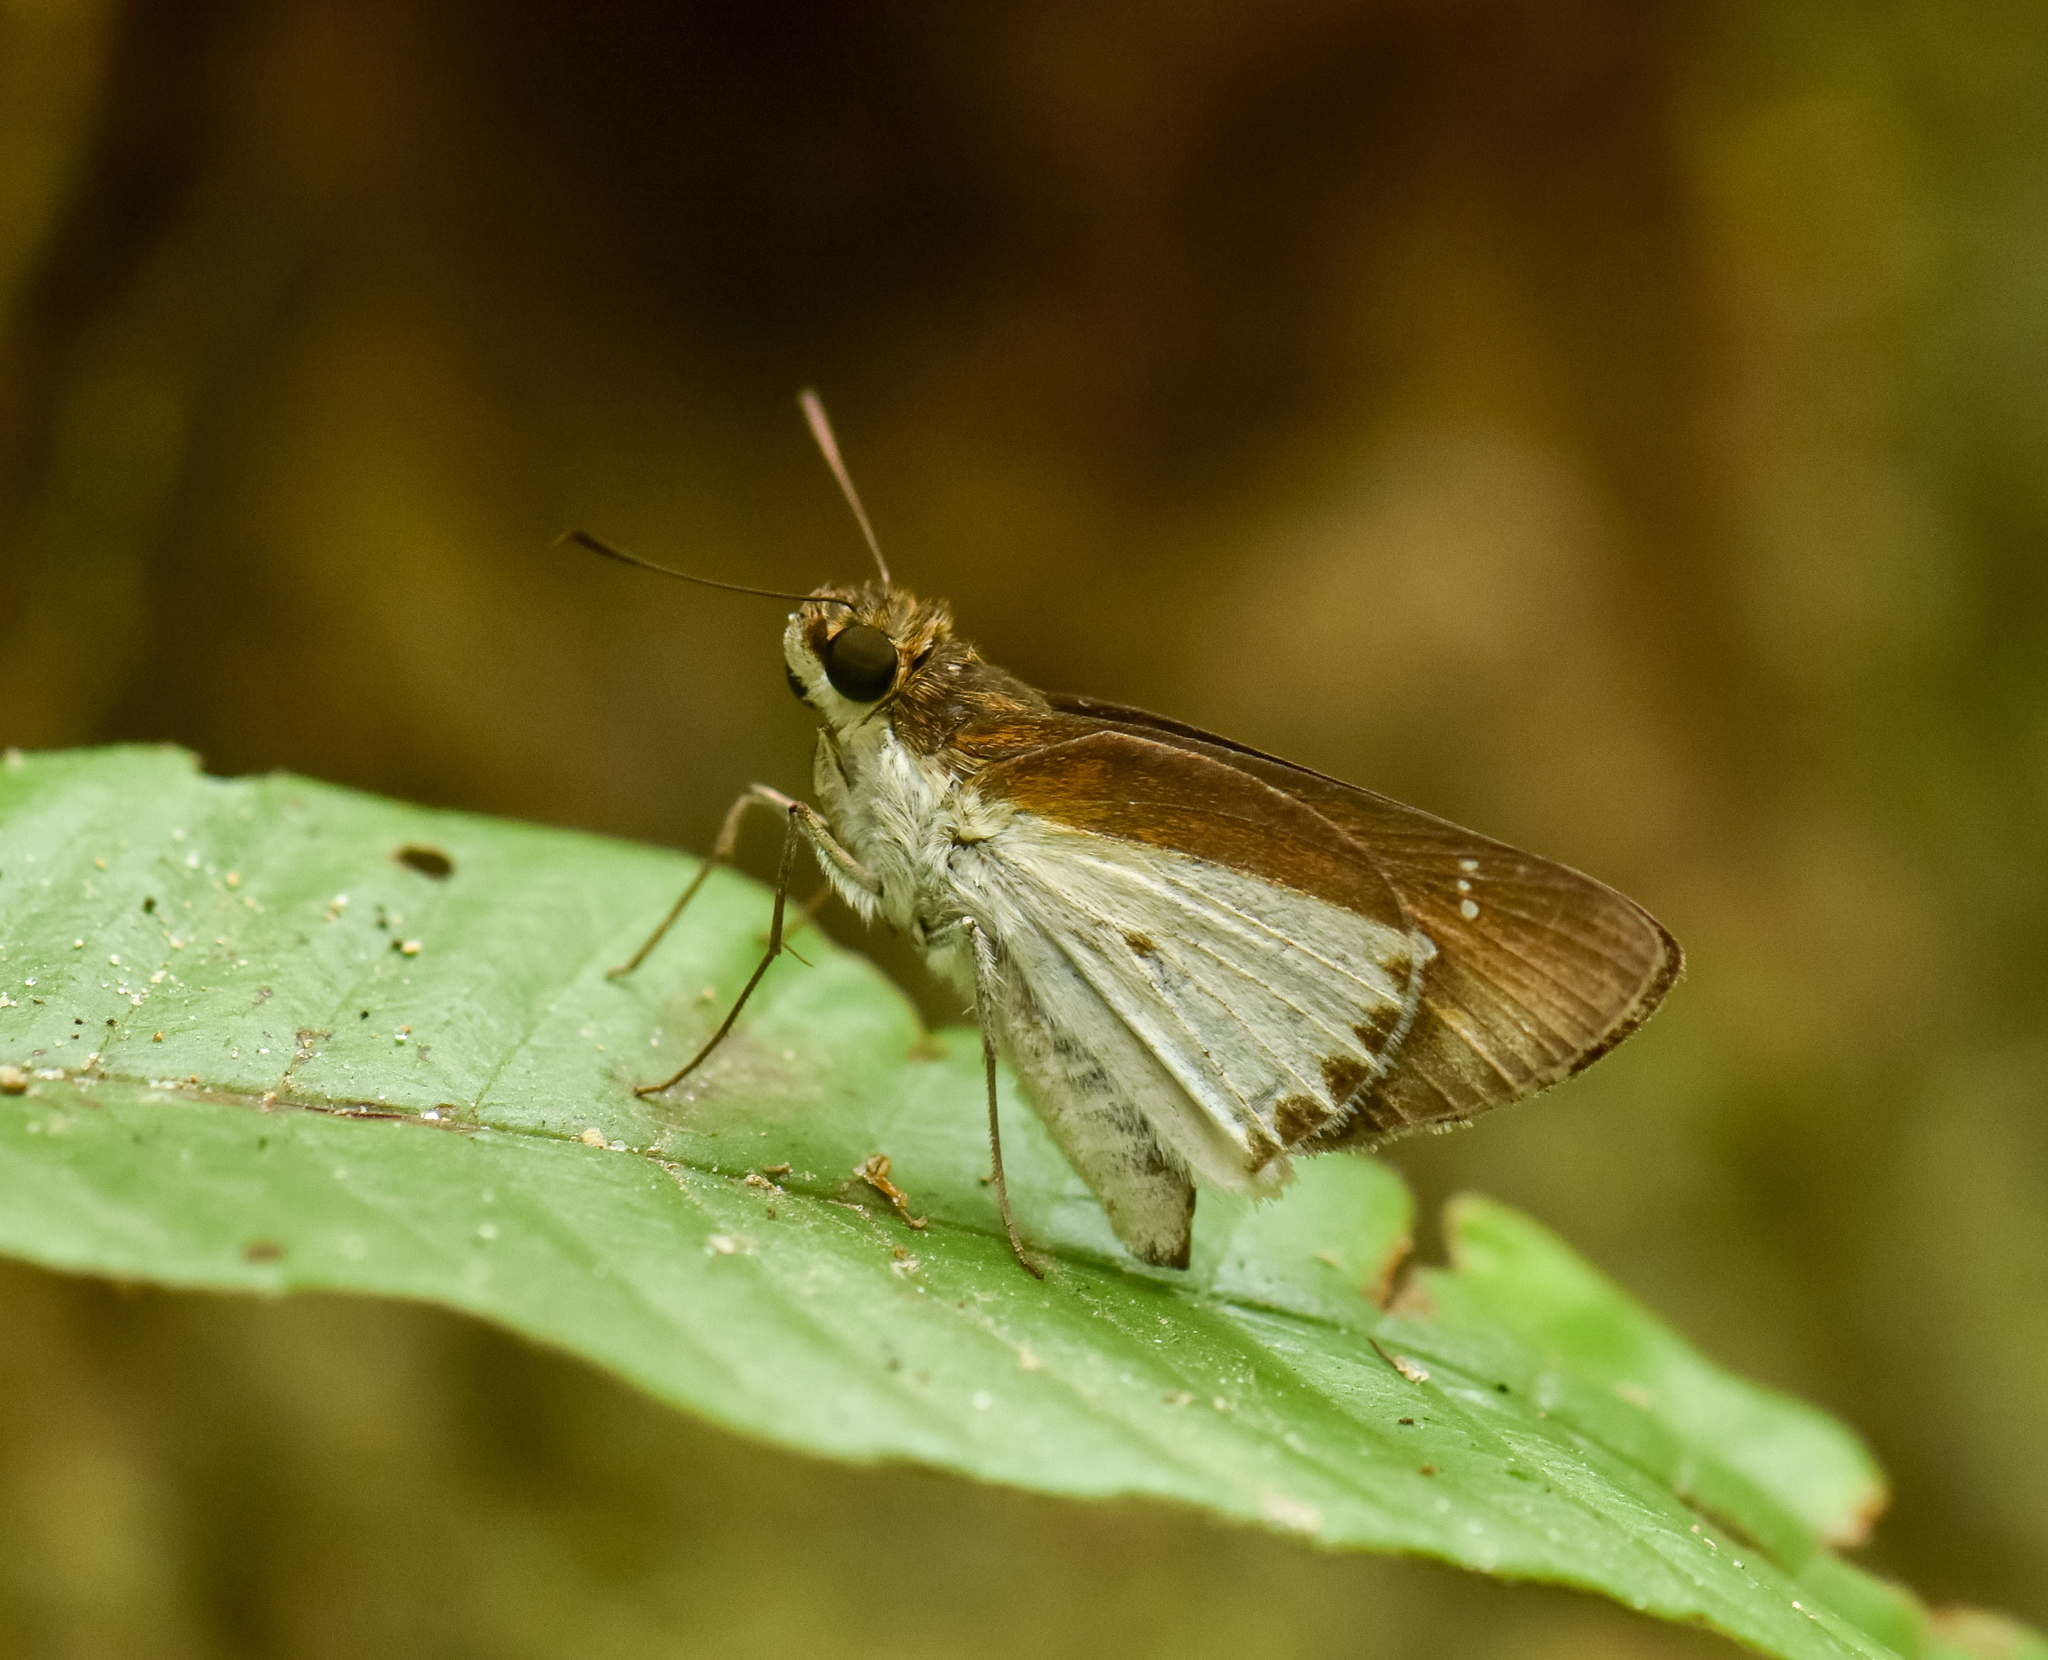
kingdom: Animalia
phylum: Arthropoda
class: Insecta
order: Lepidoptera
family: Hesperiidae
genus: Iton
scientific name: Iton semamora
